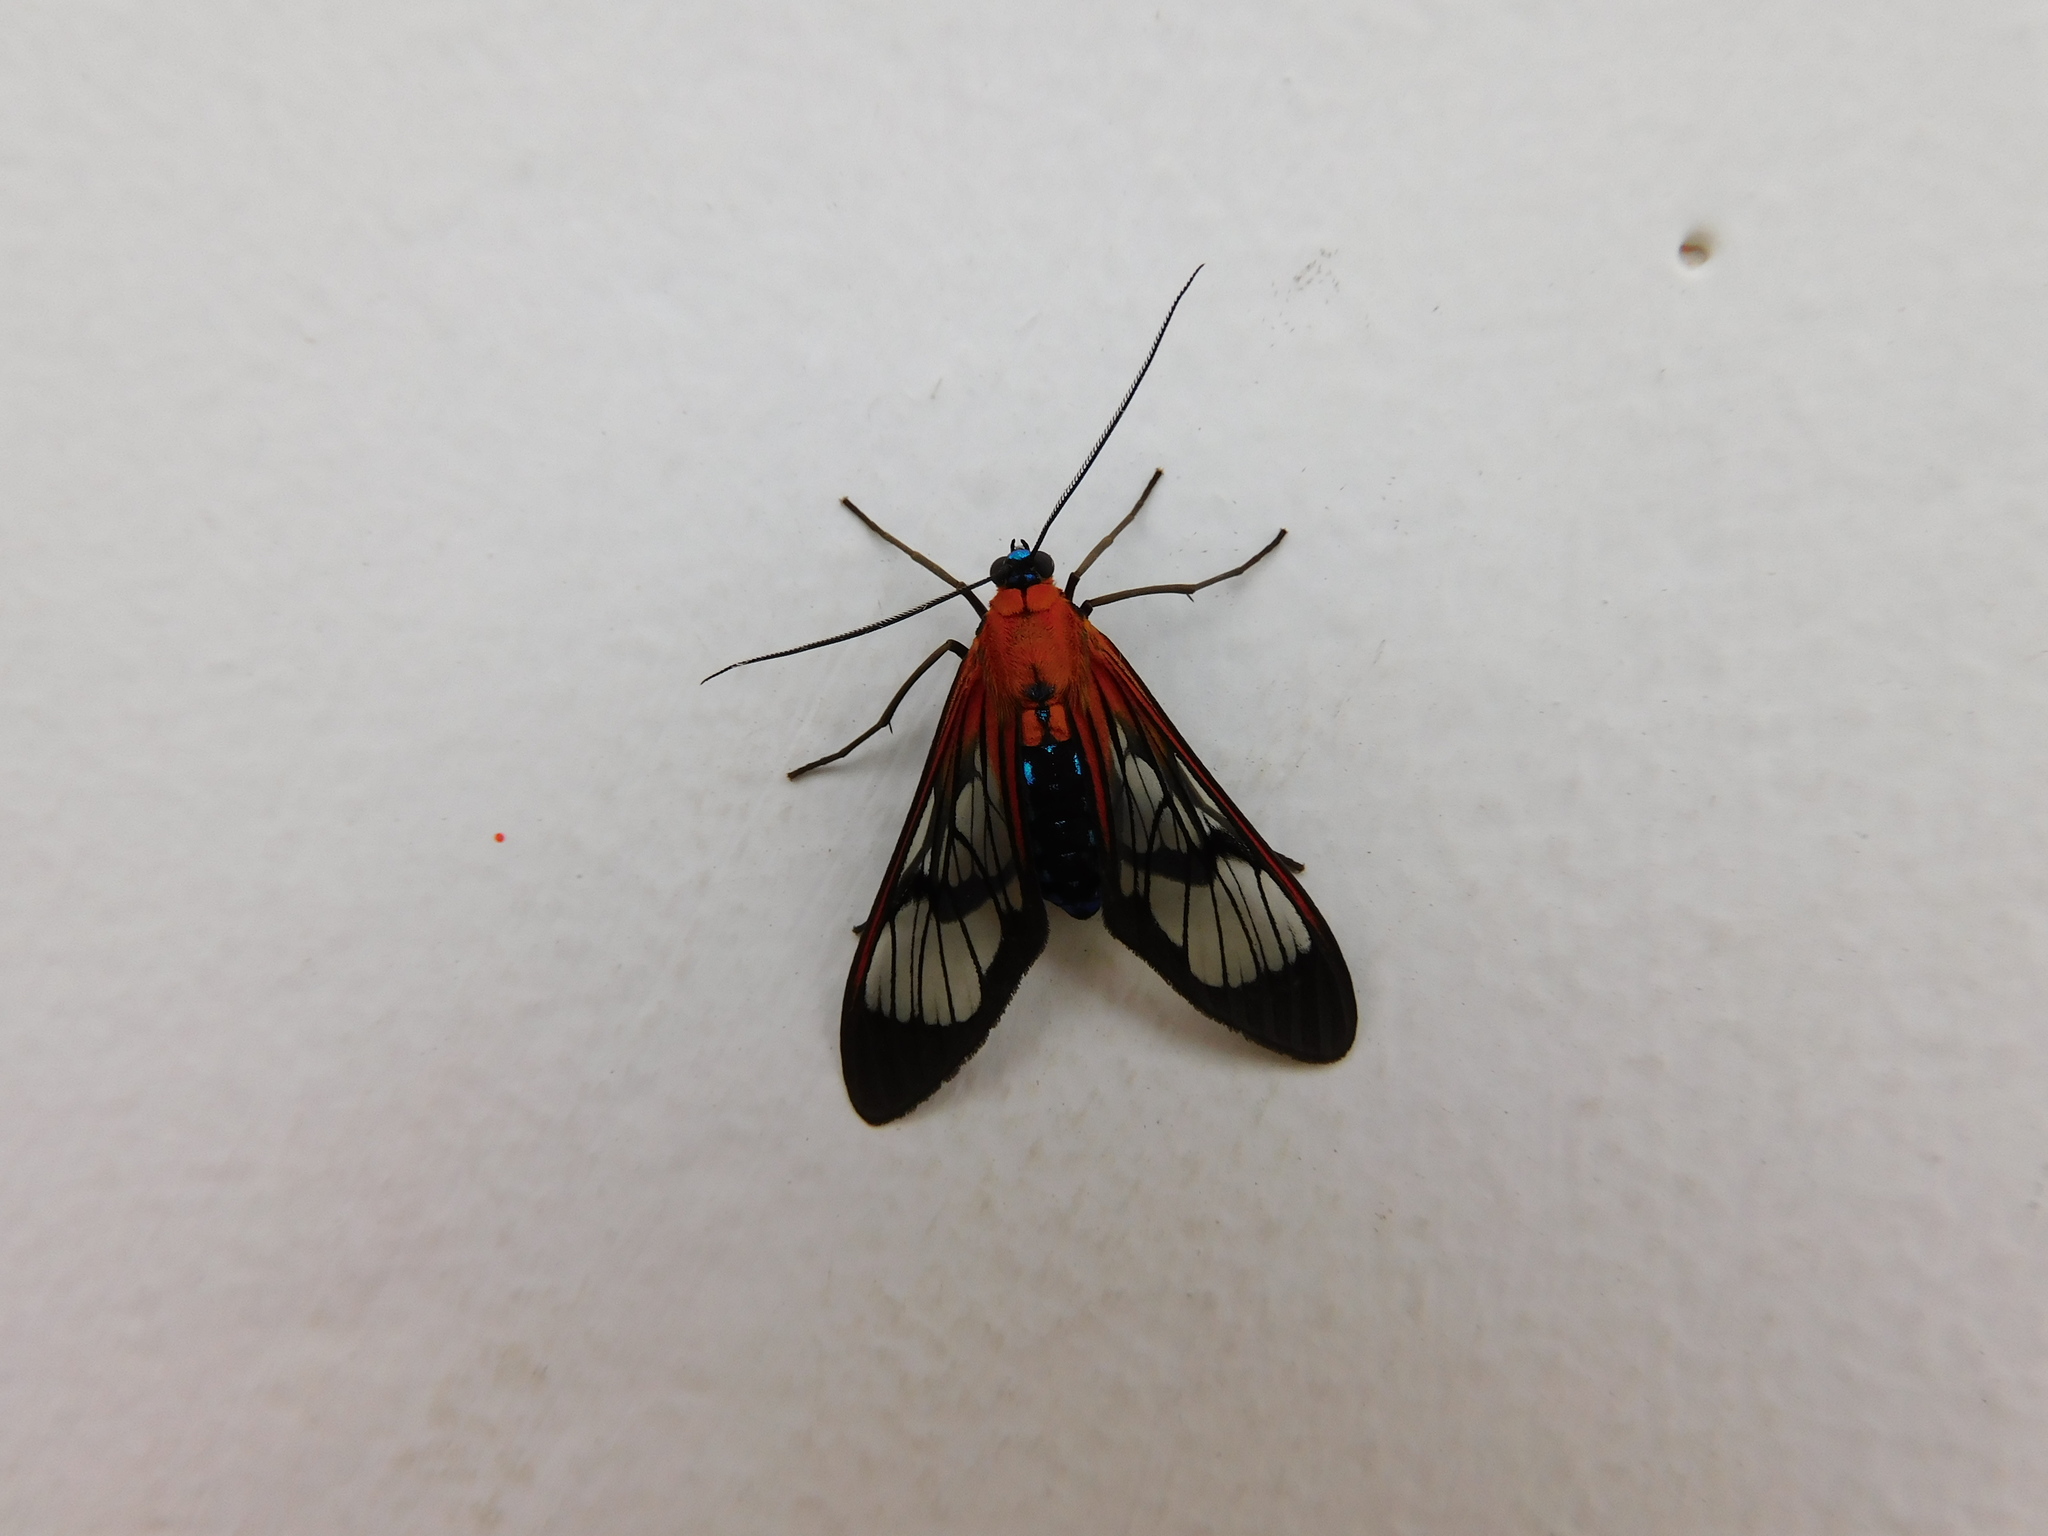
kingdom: Animalia
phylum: Arthropoda
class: Insecta
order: Lepidoptera
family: Erebidae
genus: Lepidoneiva
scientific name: Lepidoneiva teuthras
